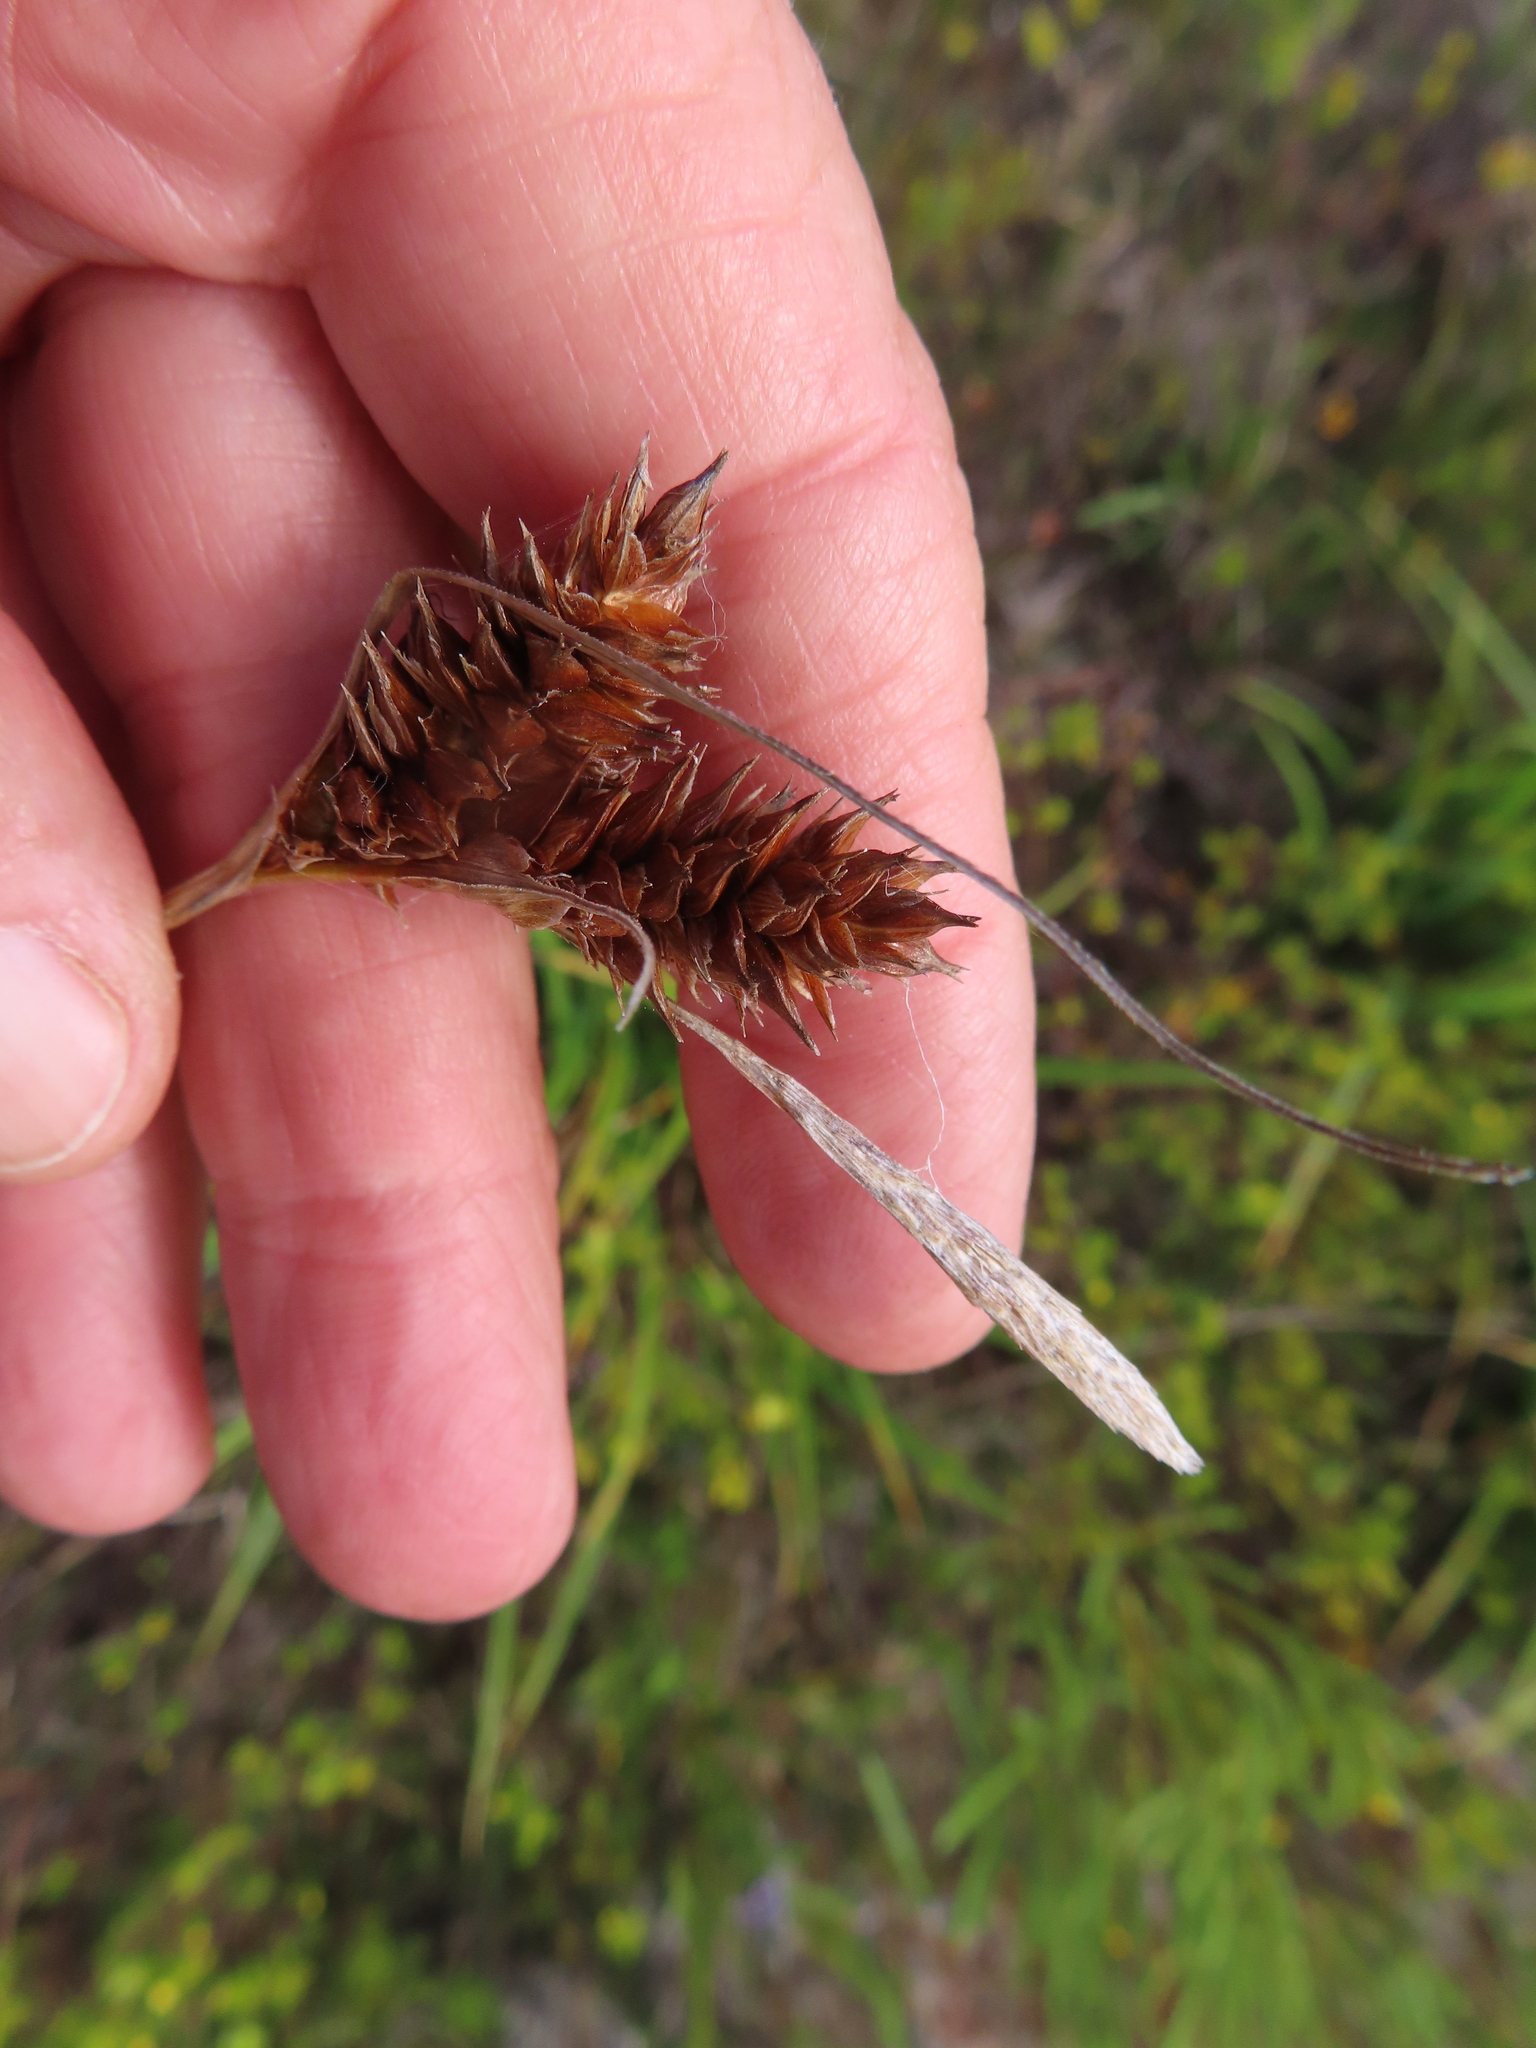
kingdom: Plantae
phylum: Tracheophyta
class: Liliopsida
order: Poales
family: Cyperaceae
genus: Carex
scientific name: Carex aethiopica
